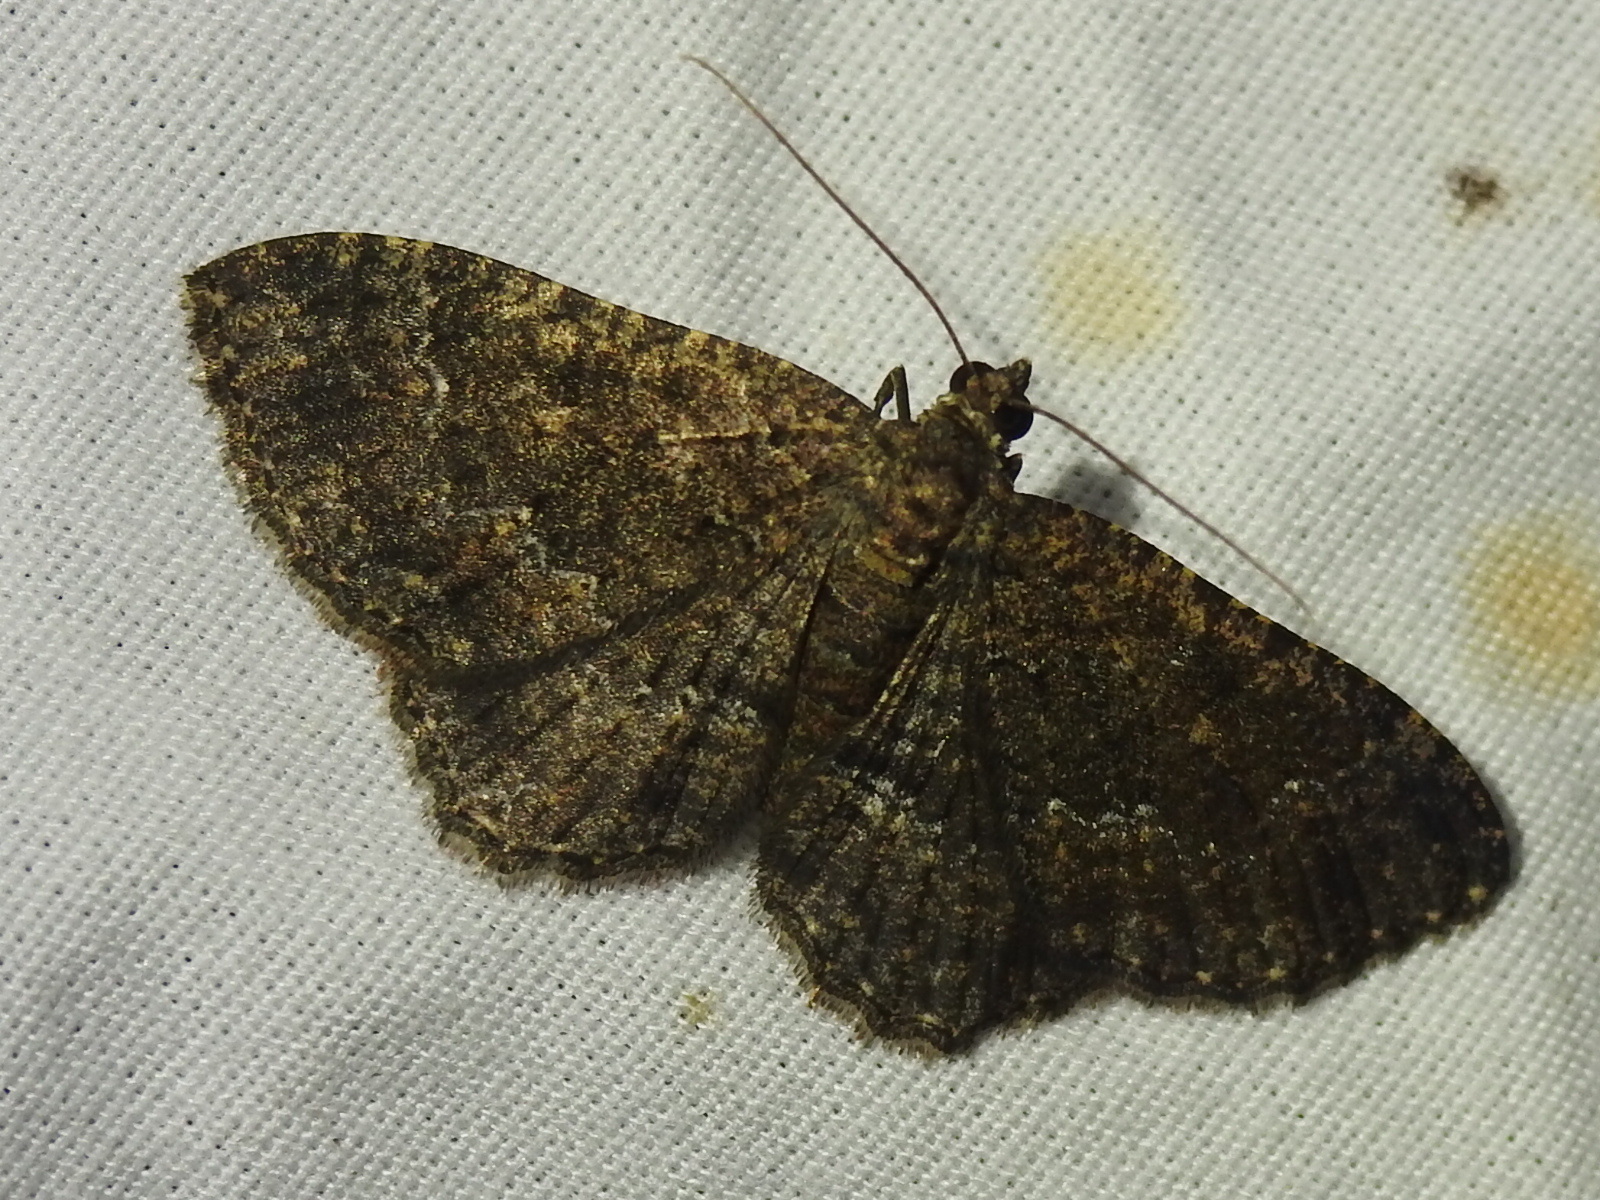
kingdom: Animalia
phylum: Arthropoda
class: Insecta
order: Lepidoptera
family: Geometridae
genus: Disclisioprocta
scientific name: Disclisioprocta stellata
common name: Somber carpet
